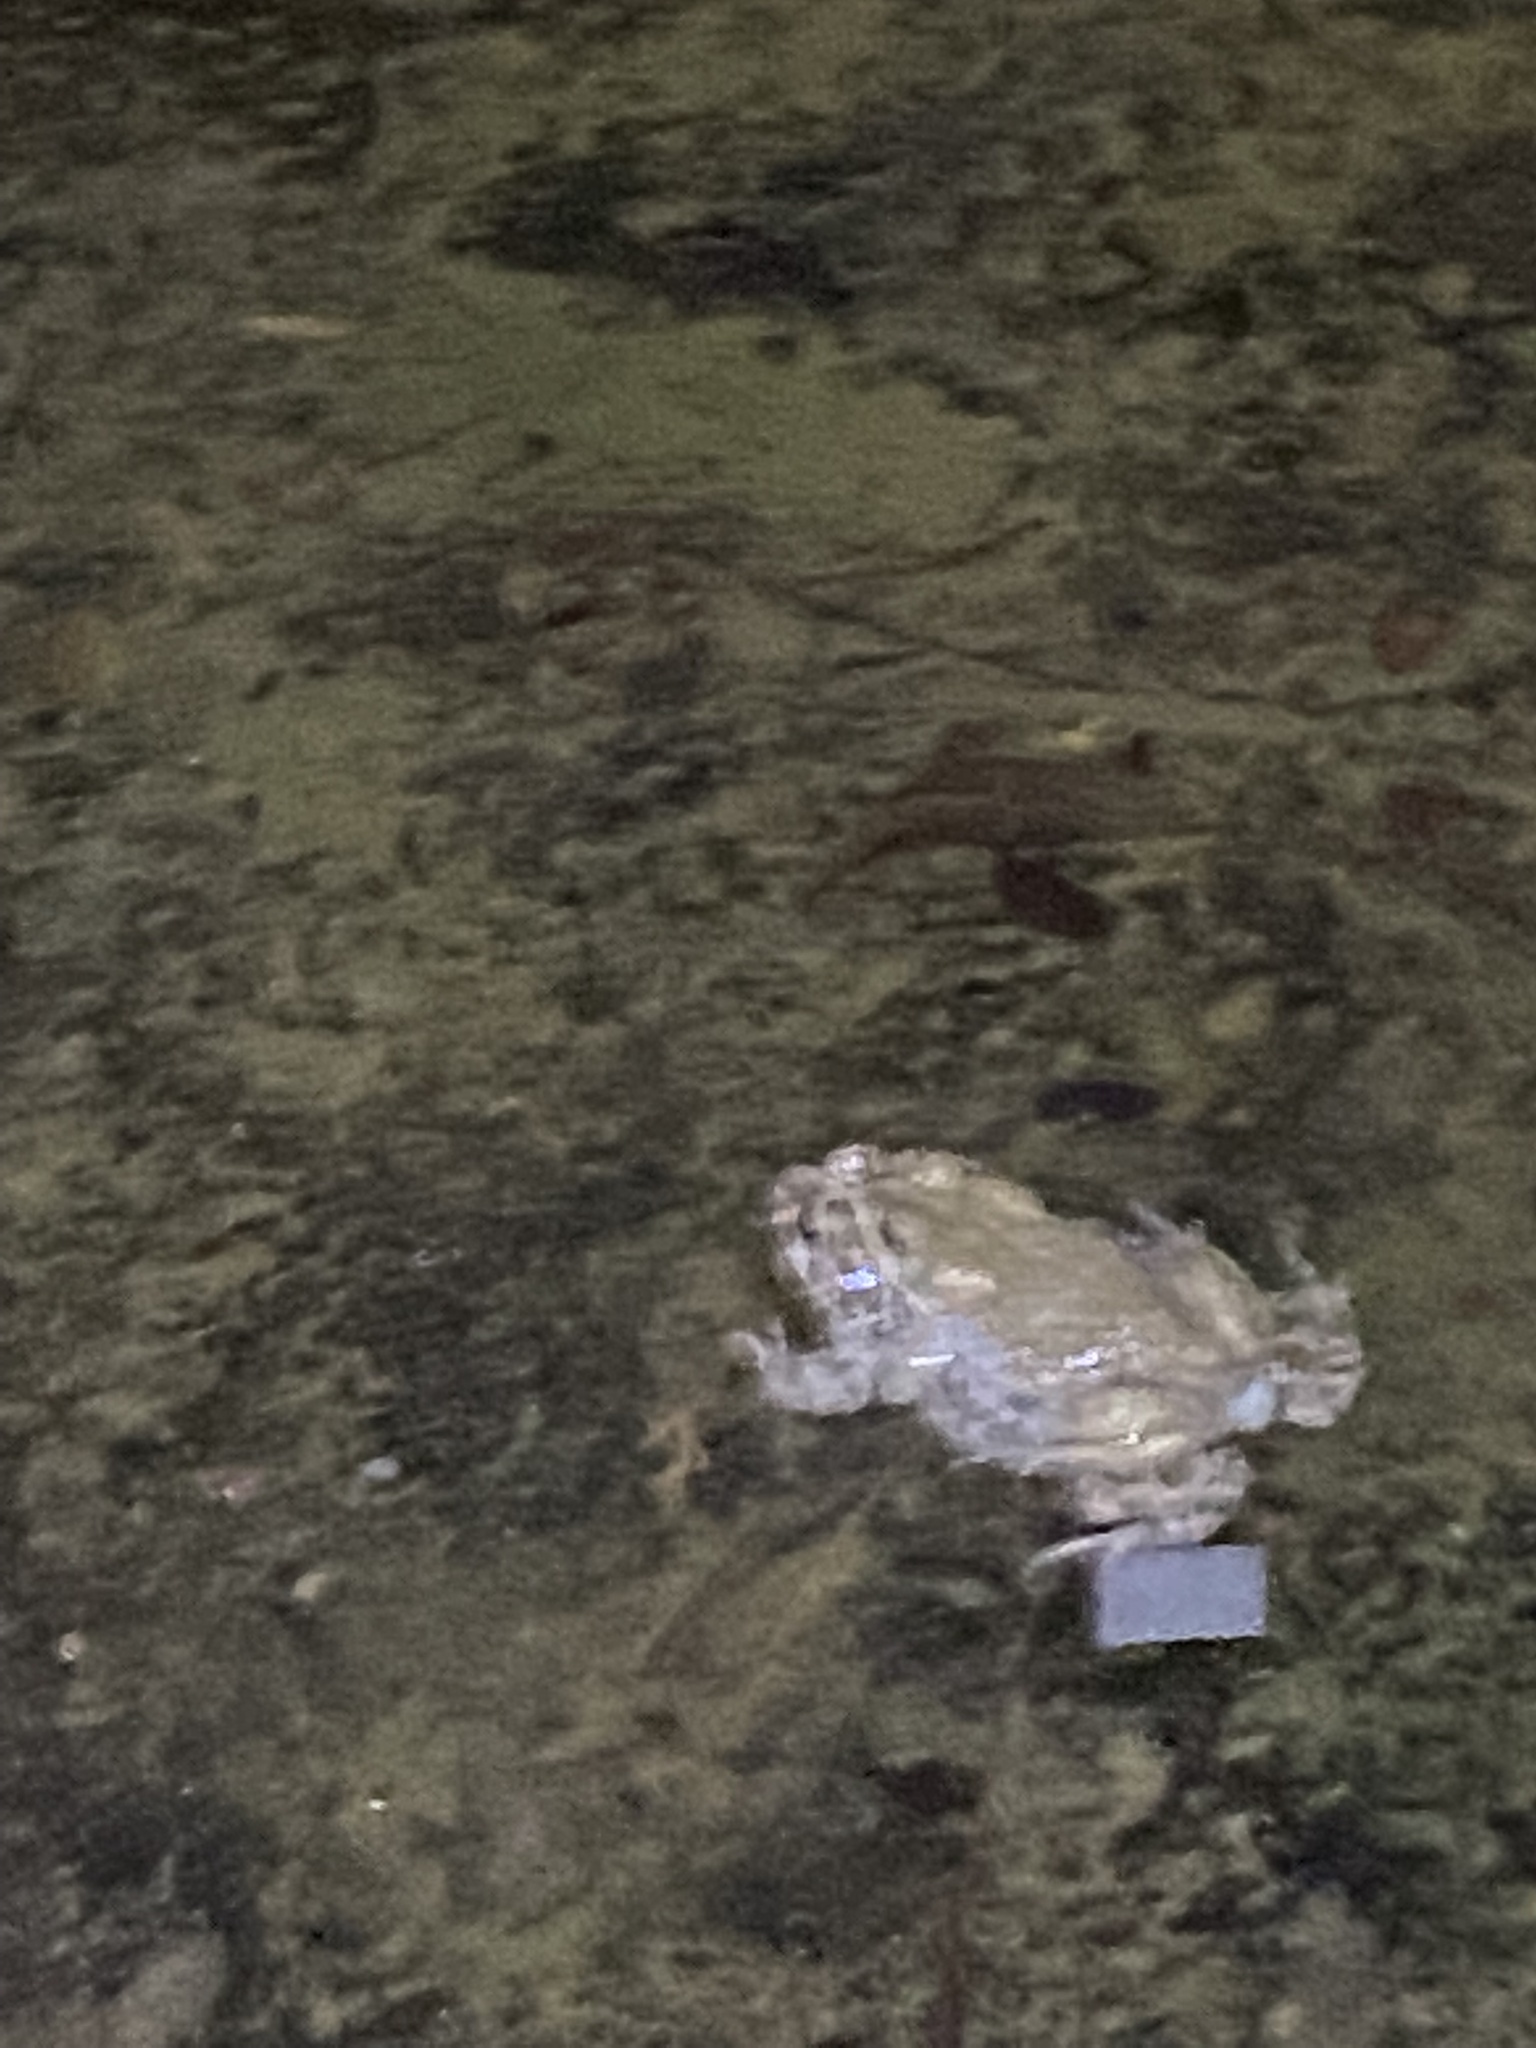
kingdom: Animalia
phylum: Chordata
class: Amphibia
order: Anura
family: Bufonidae
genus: Bufotes
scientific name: Bufotes viridis
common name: European green toad
